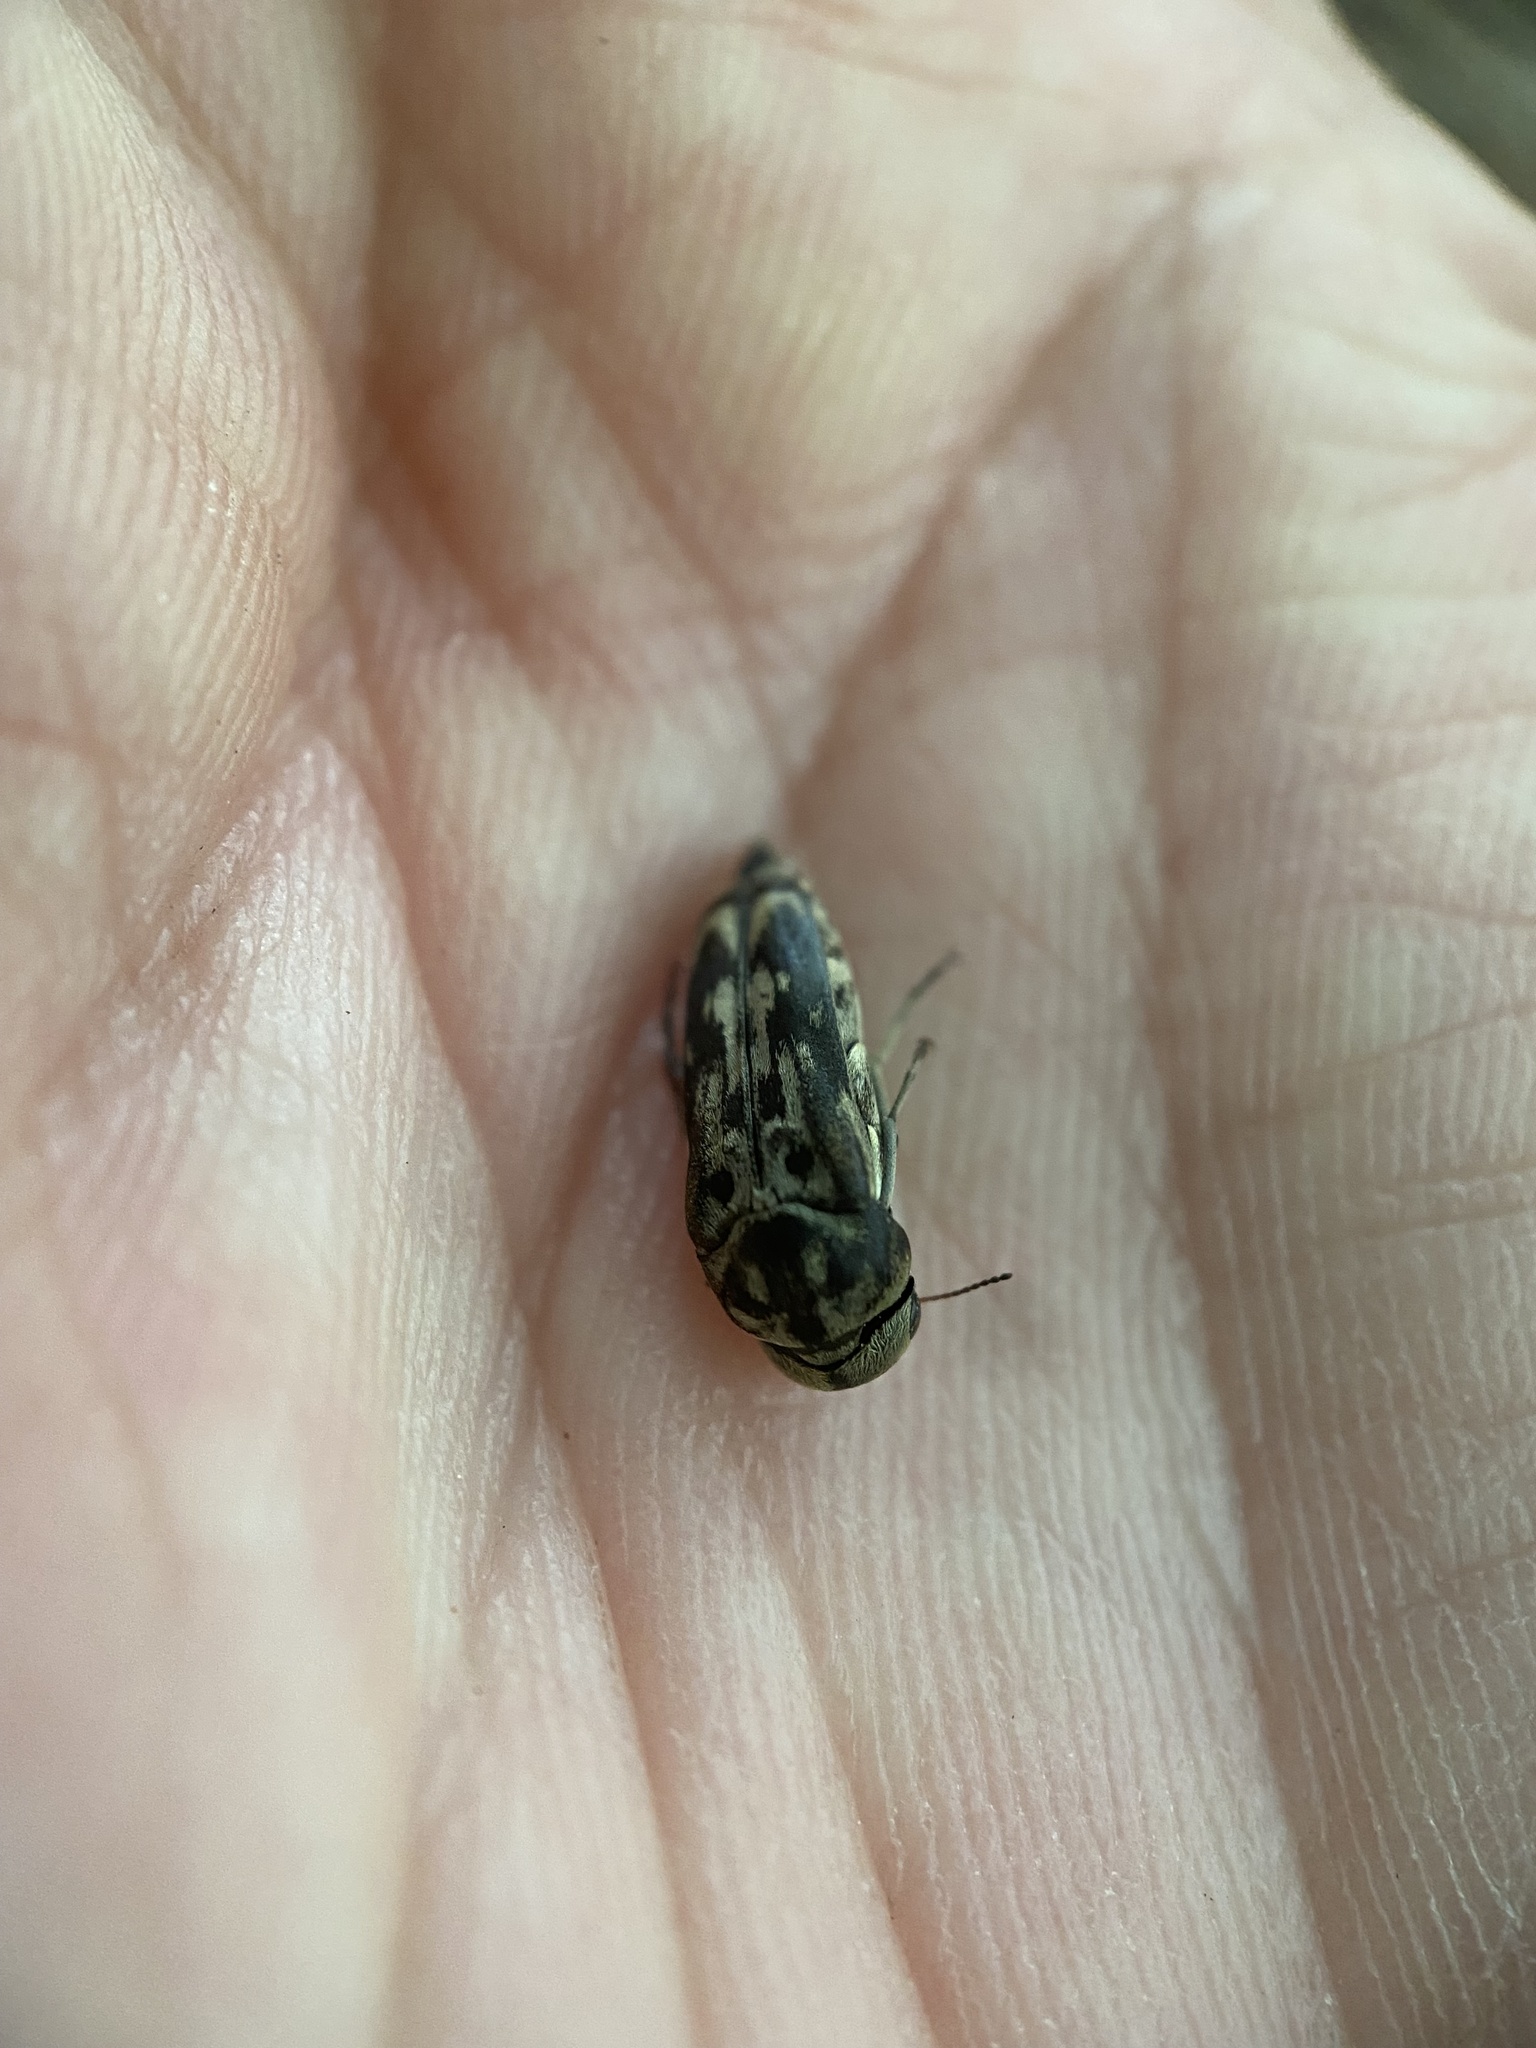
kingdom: Animalia
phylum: Arthropoda
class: Insecta
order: Coleoptera
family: Mordellidae
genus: Yakuhananomia
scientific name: Yakuhananomia bidentata
